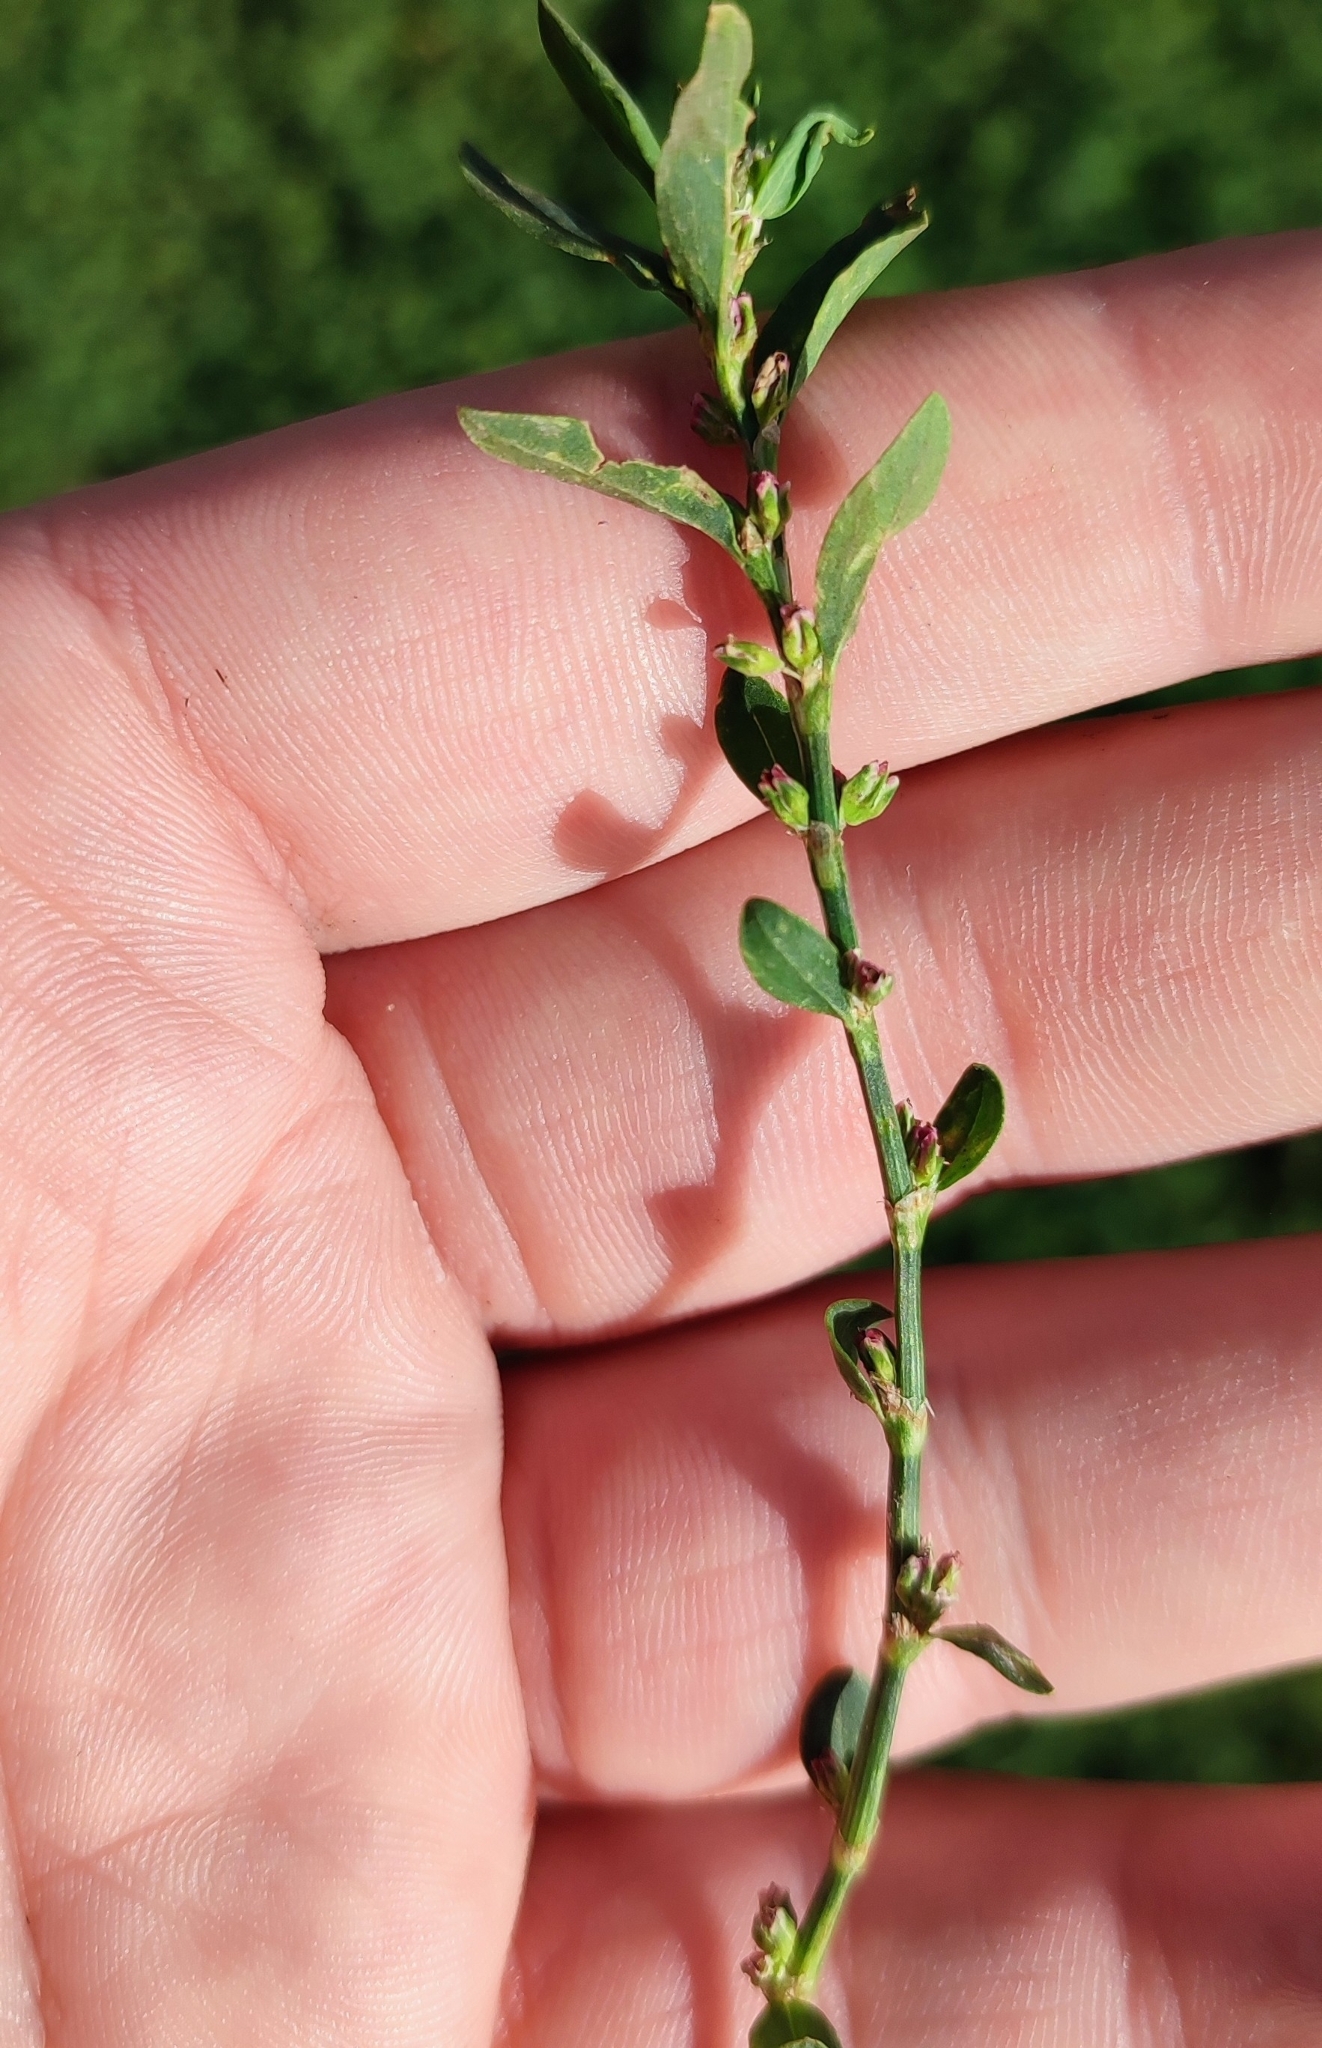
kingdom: Plantae
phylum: Tracheophyta
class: Magnoliopsida
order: Caryophyllales
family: Polygonaceae
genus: Polygonum
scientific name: Polygonum
